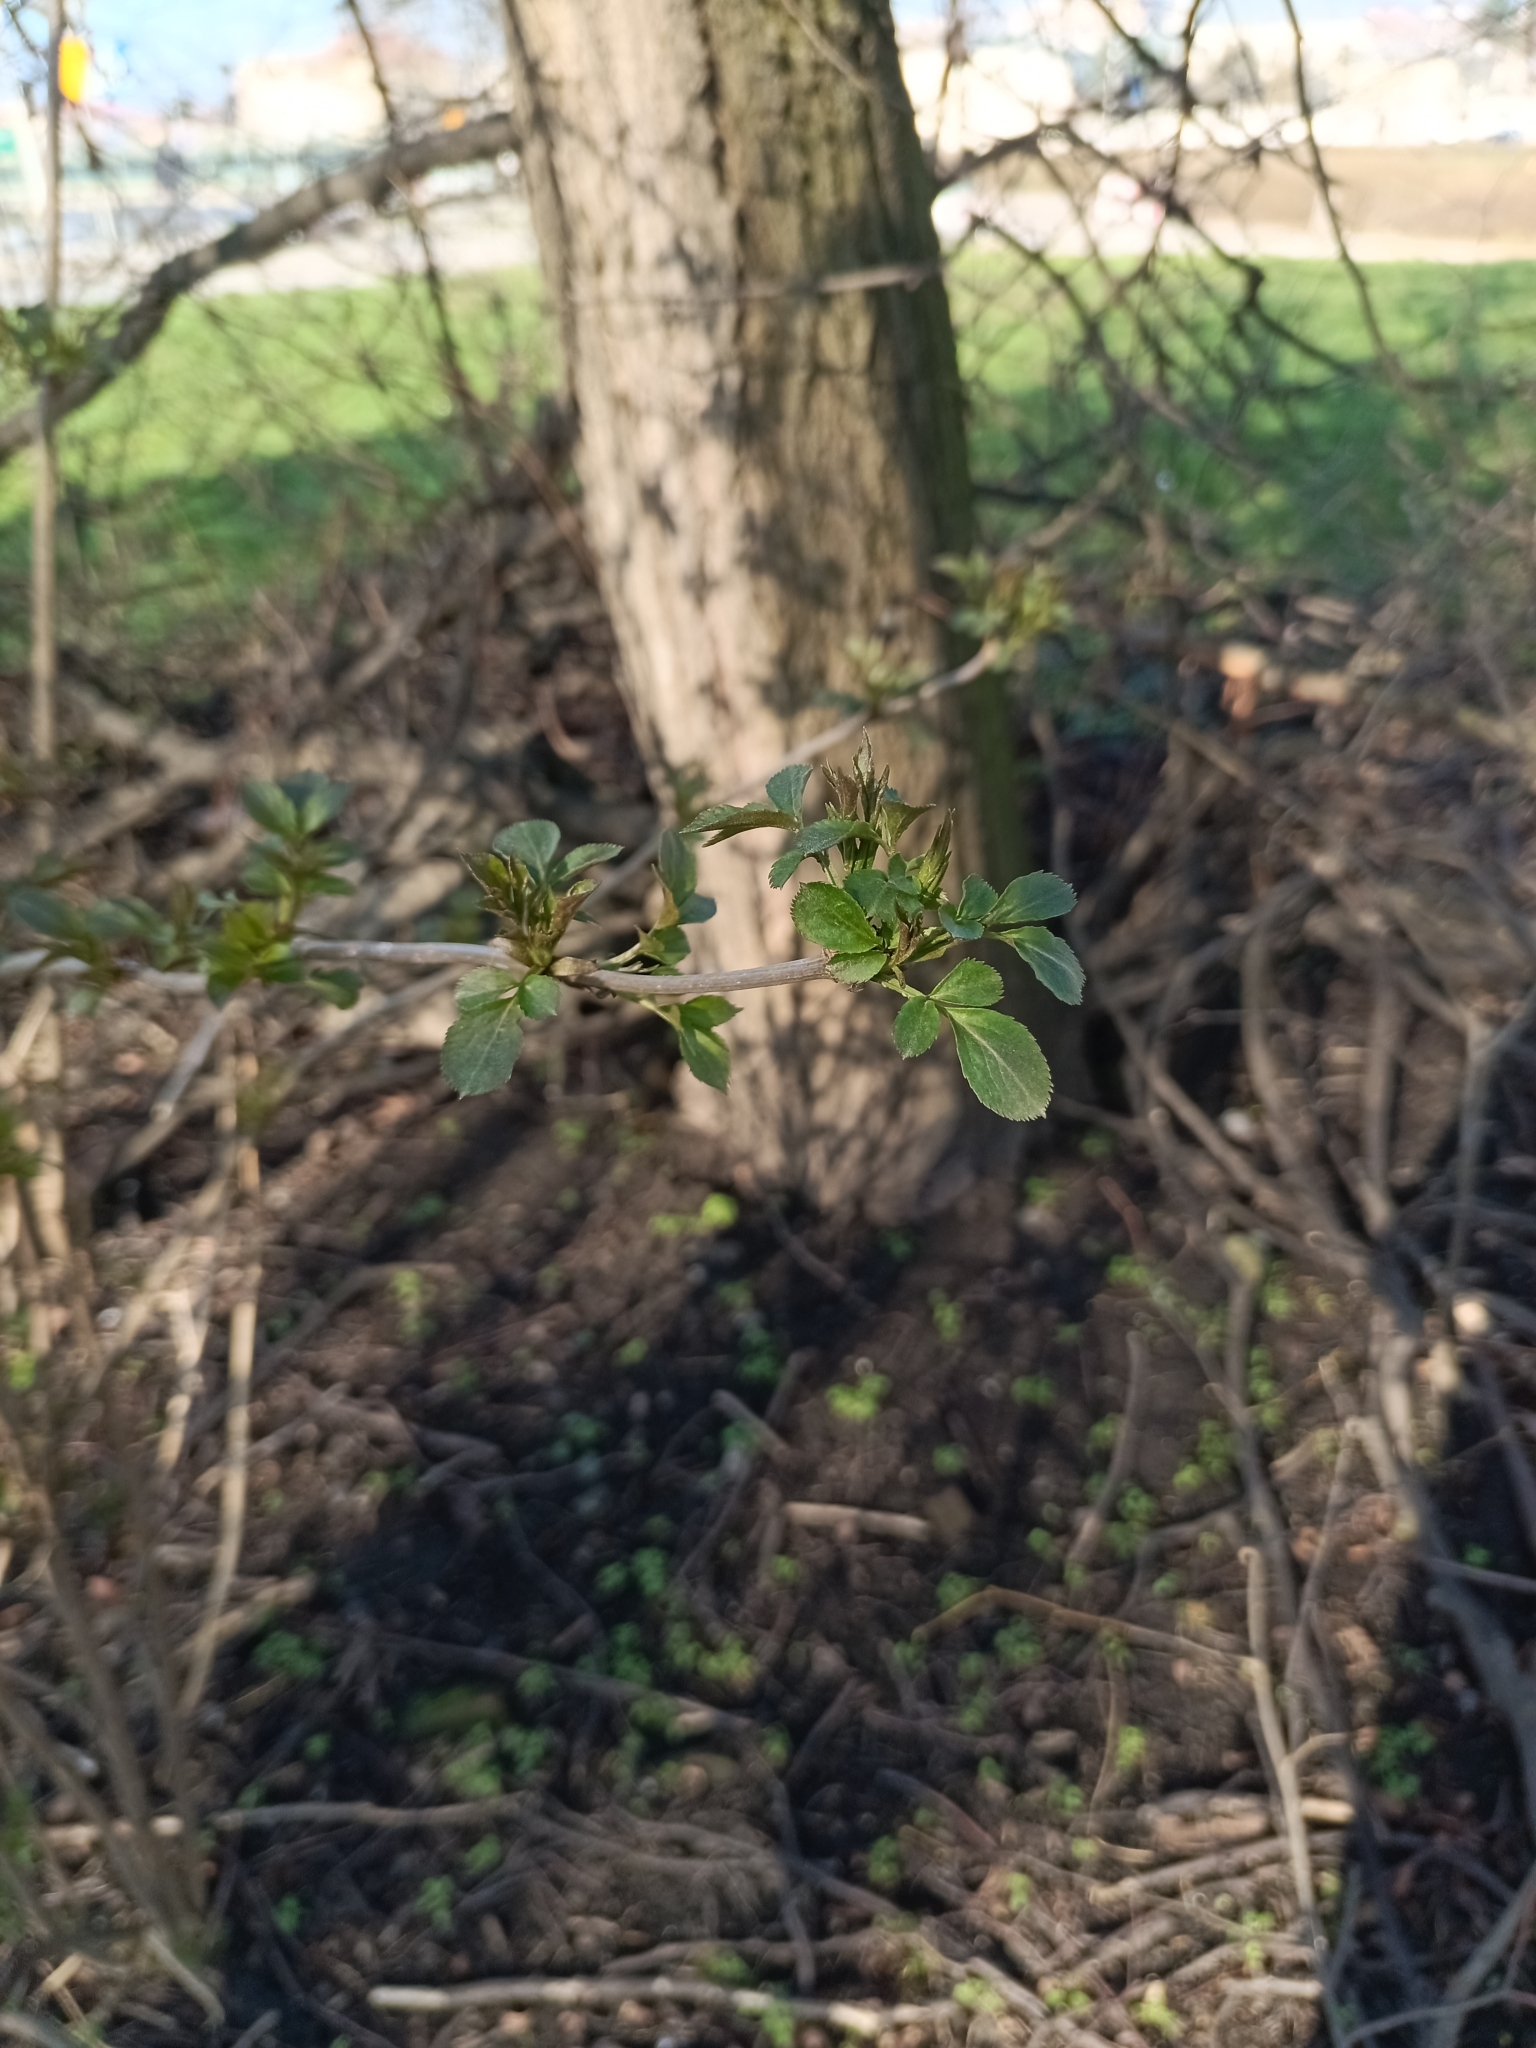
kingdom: Plantae
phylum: Tracheophyta
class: Magnoliopsida
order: Dipsacales
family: Viburnaceae
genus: Sambucus
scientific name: Sambucus nigra
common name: Elder
